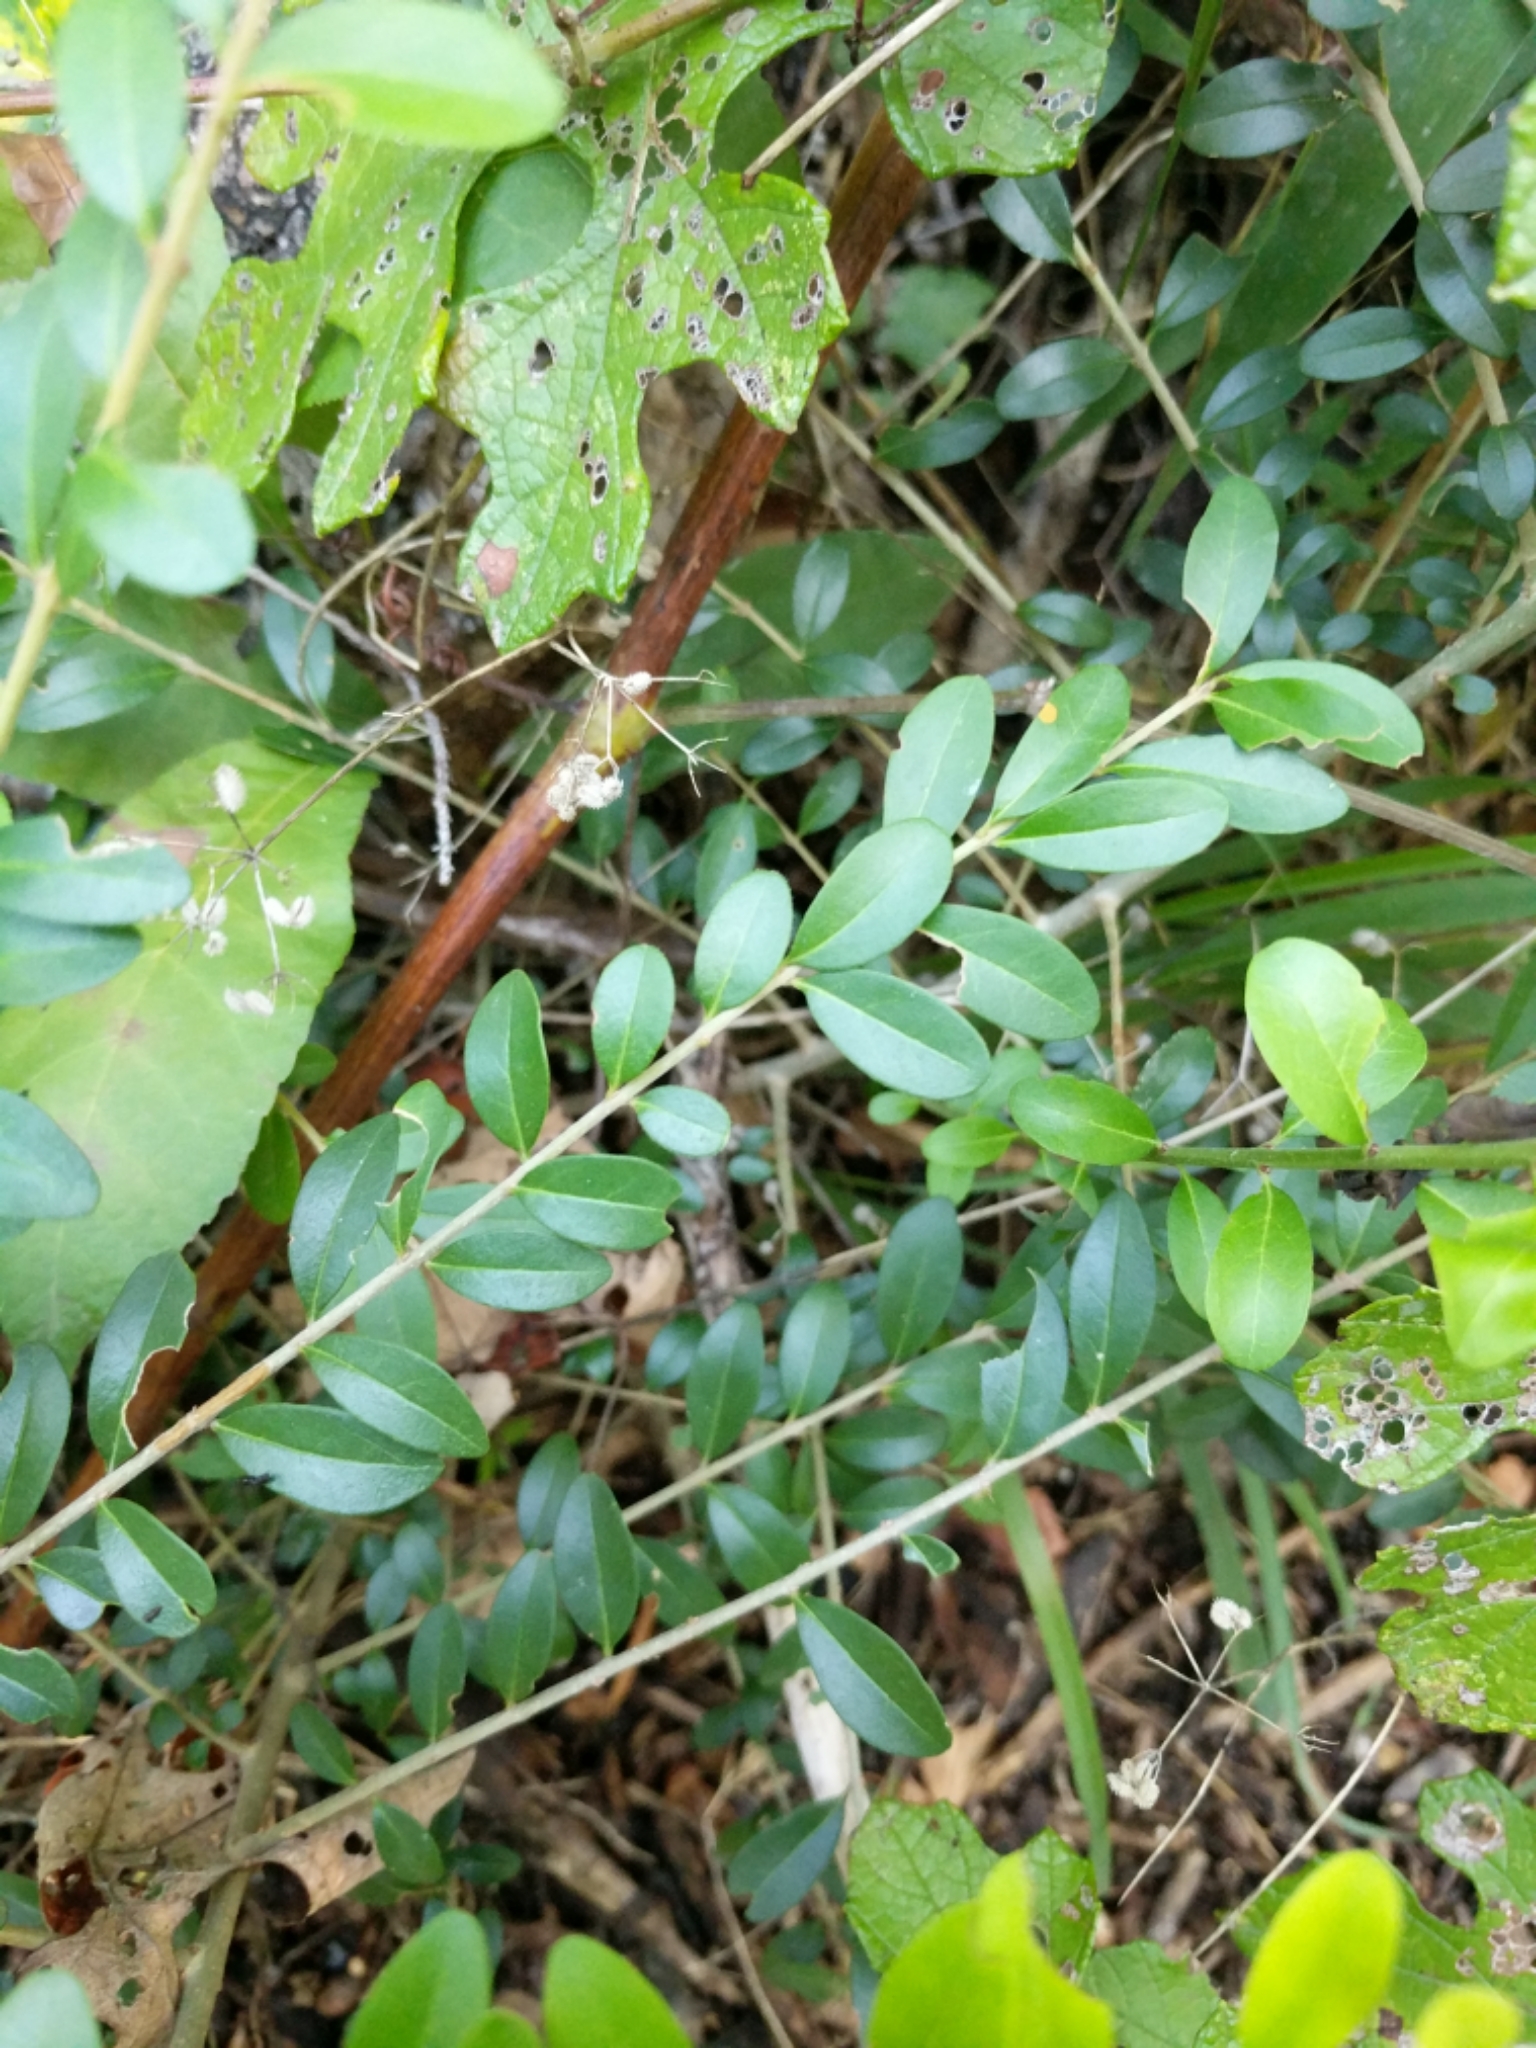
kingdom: Plantae
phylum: Tracheophyta
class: Magnoliopsida
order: Lamiales
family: Oleaceae
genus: Ligustrum
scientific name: Ligustrum quihoui
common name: Waxyleaf privet
